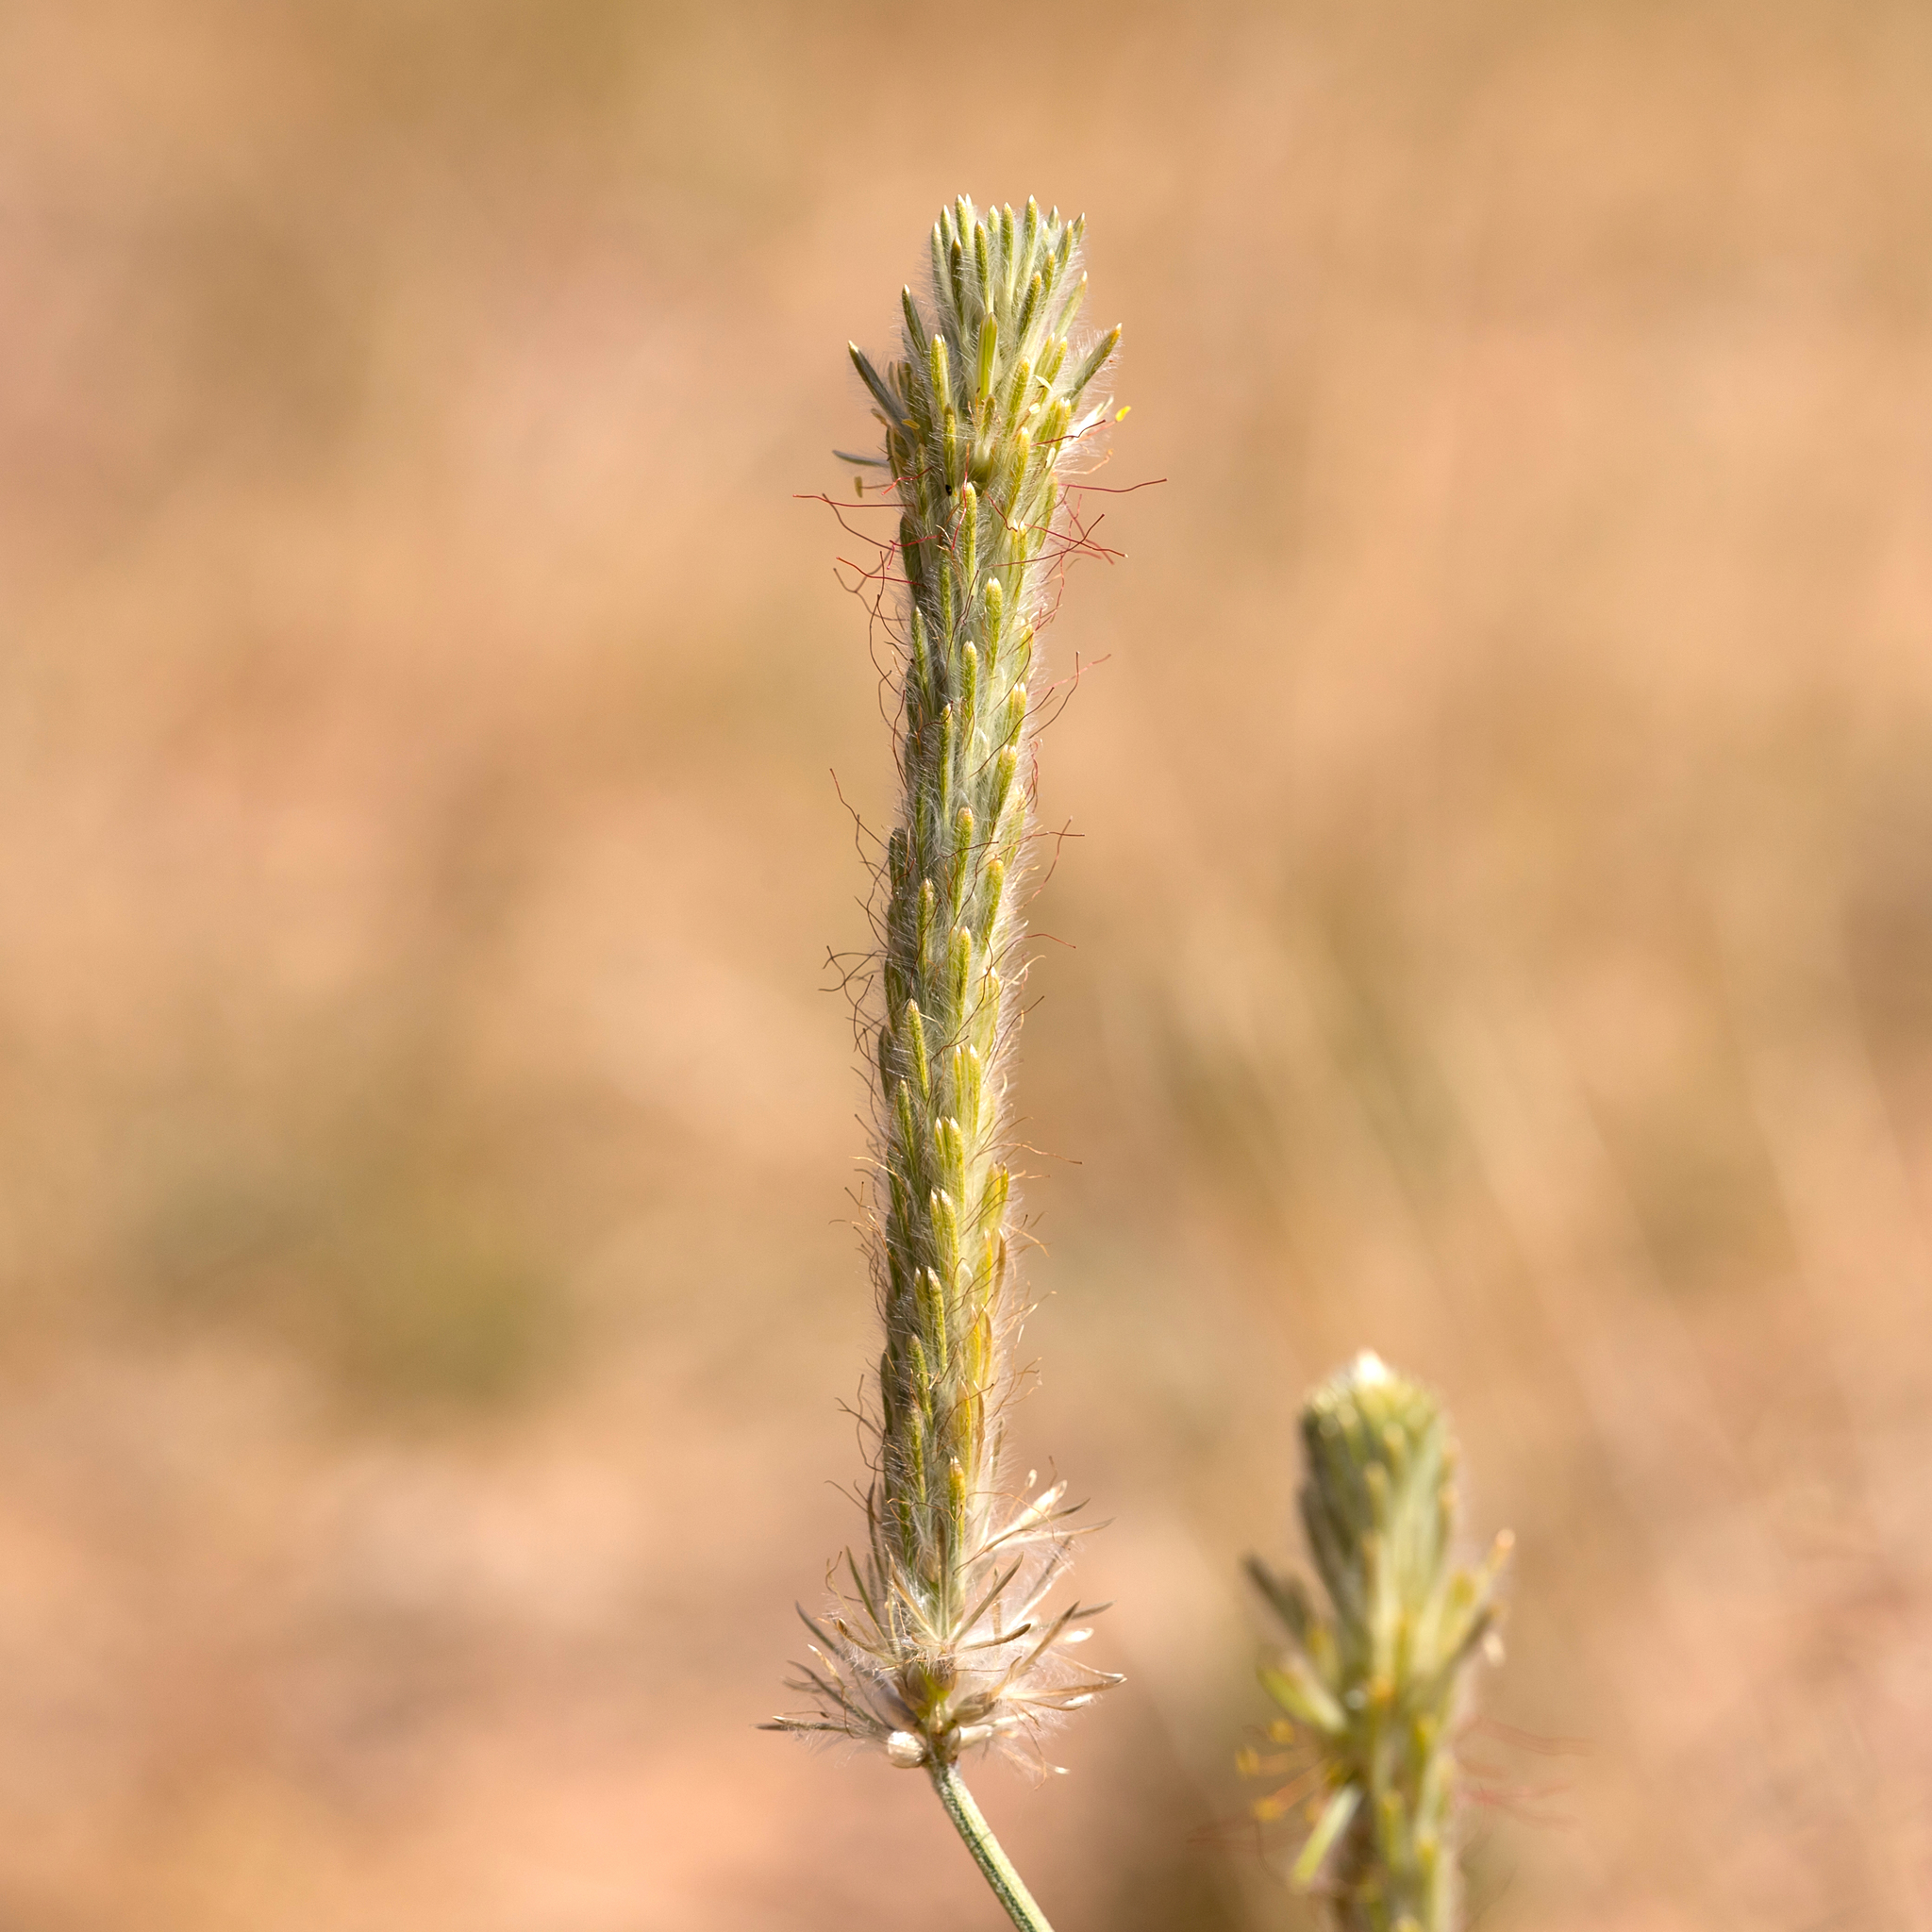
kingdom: Plantae
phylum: Tracheophyta
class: Magnoliopsida
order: Caryophyllales
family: Amaranthaceae
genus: Ptilotus
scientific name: Ptilotus polystachyus
